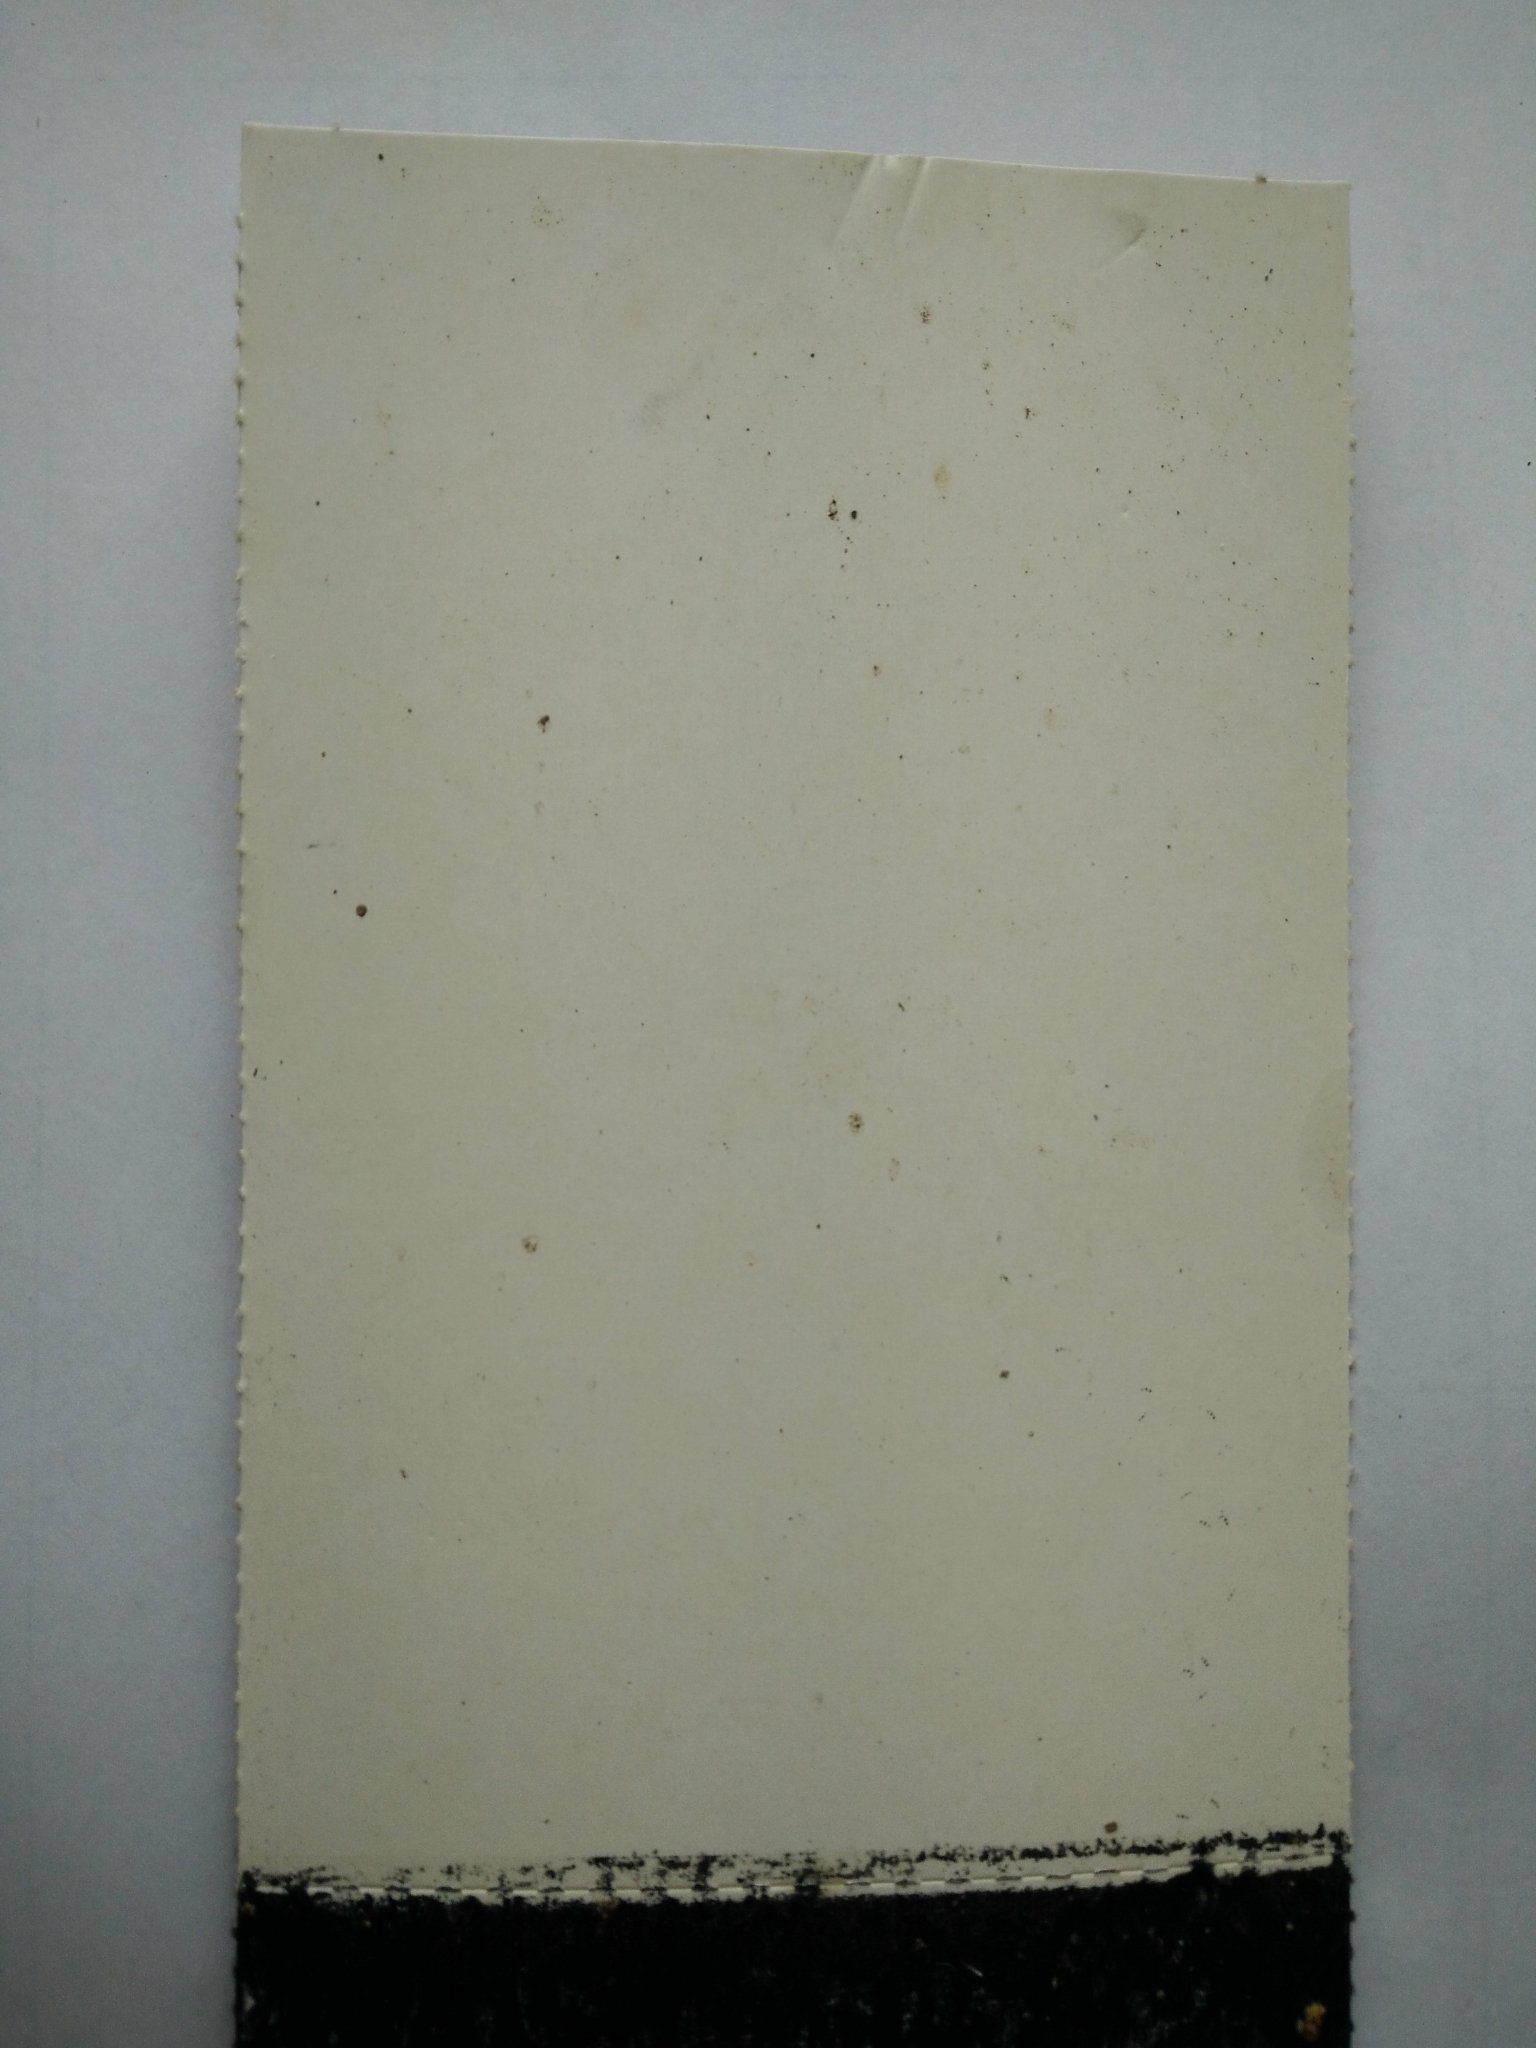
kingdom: Animalia
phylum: Chordata
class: Mammalia
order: Diprotodontia
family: Phalangeridae
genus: Trichosurus
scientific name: Trichosurus vulpecula
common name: Common brushtail
